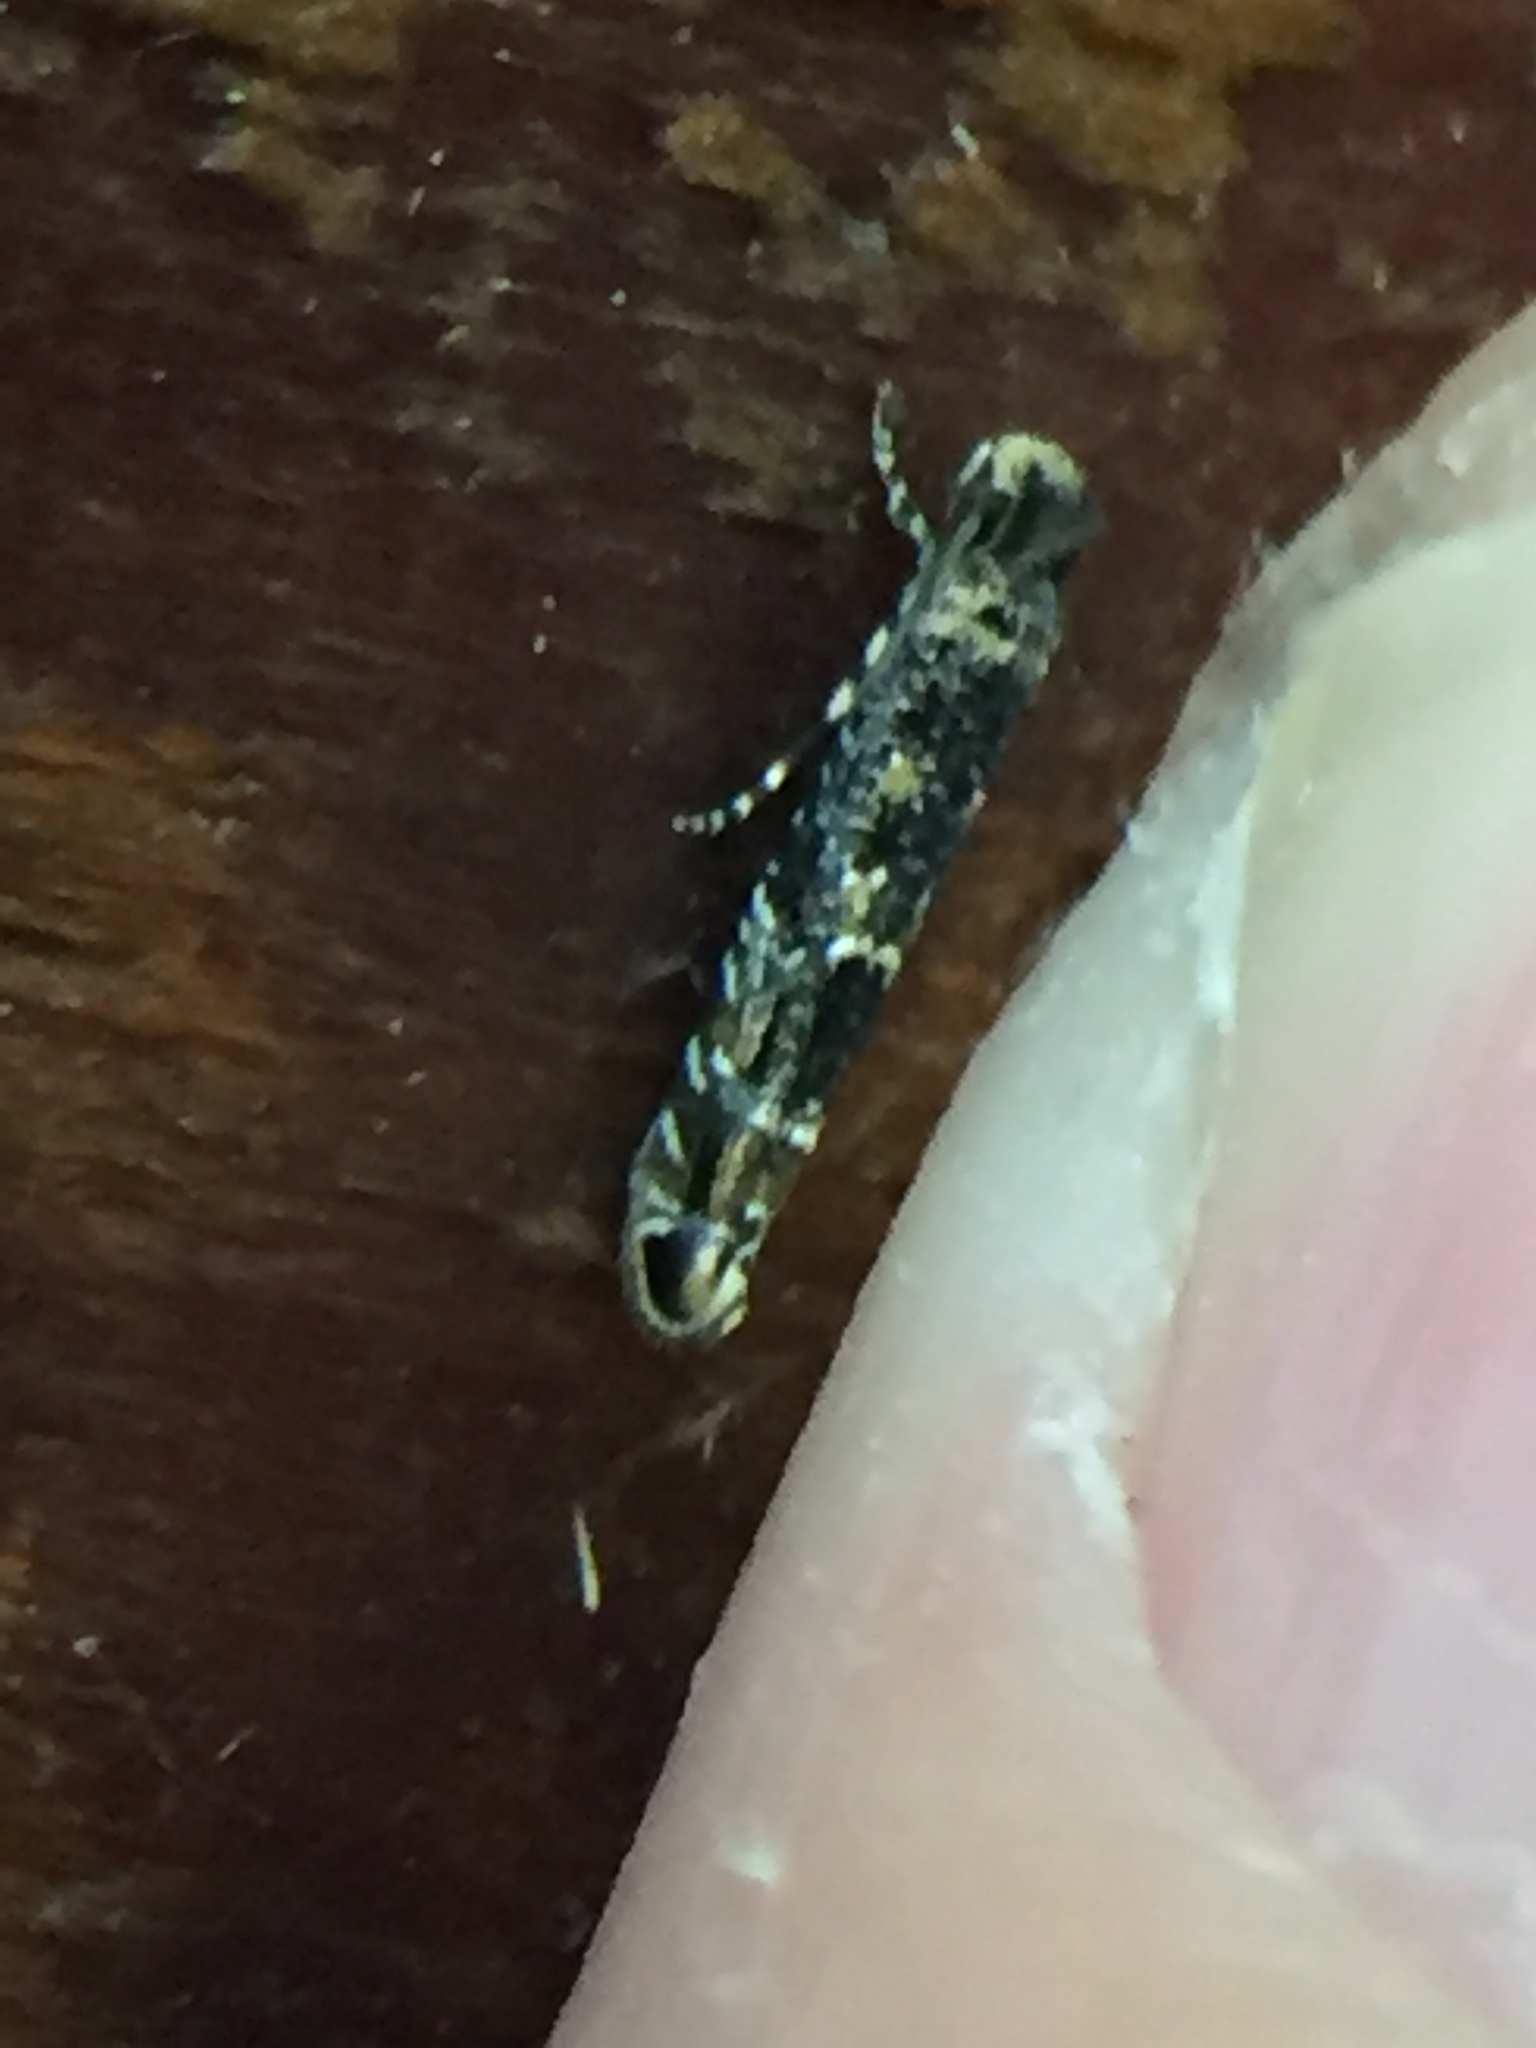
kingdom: Animalia
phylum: Arthropoda
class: Insecta
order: Lepidoptera
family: Meessiidae
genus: Oenoe
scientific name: Oenoe
